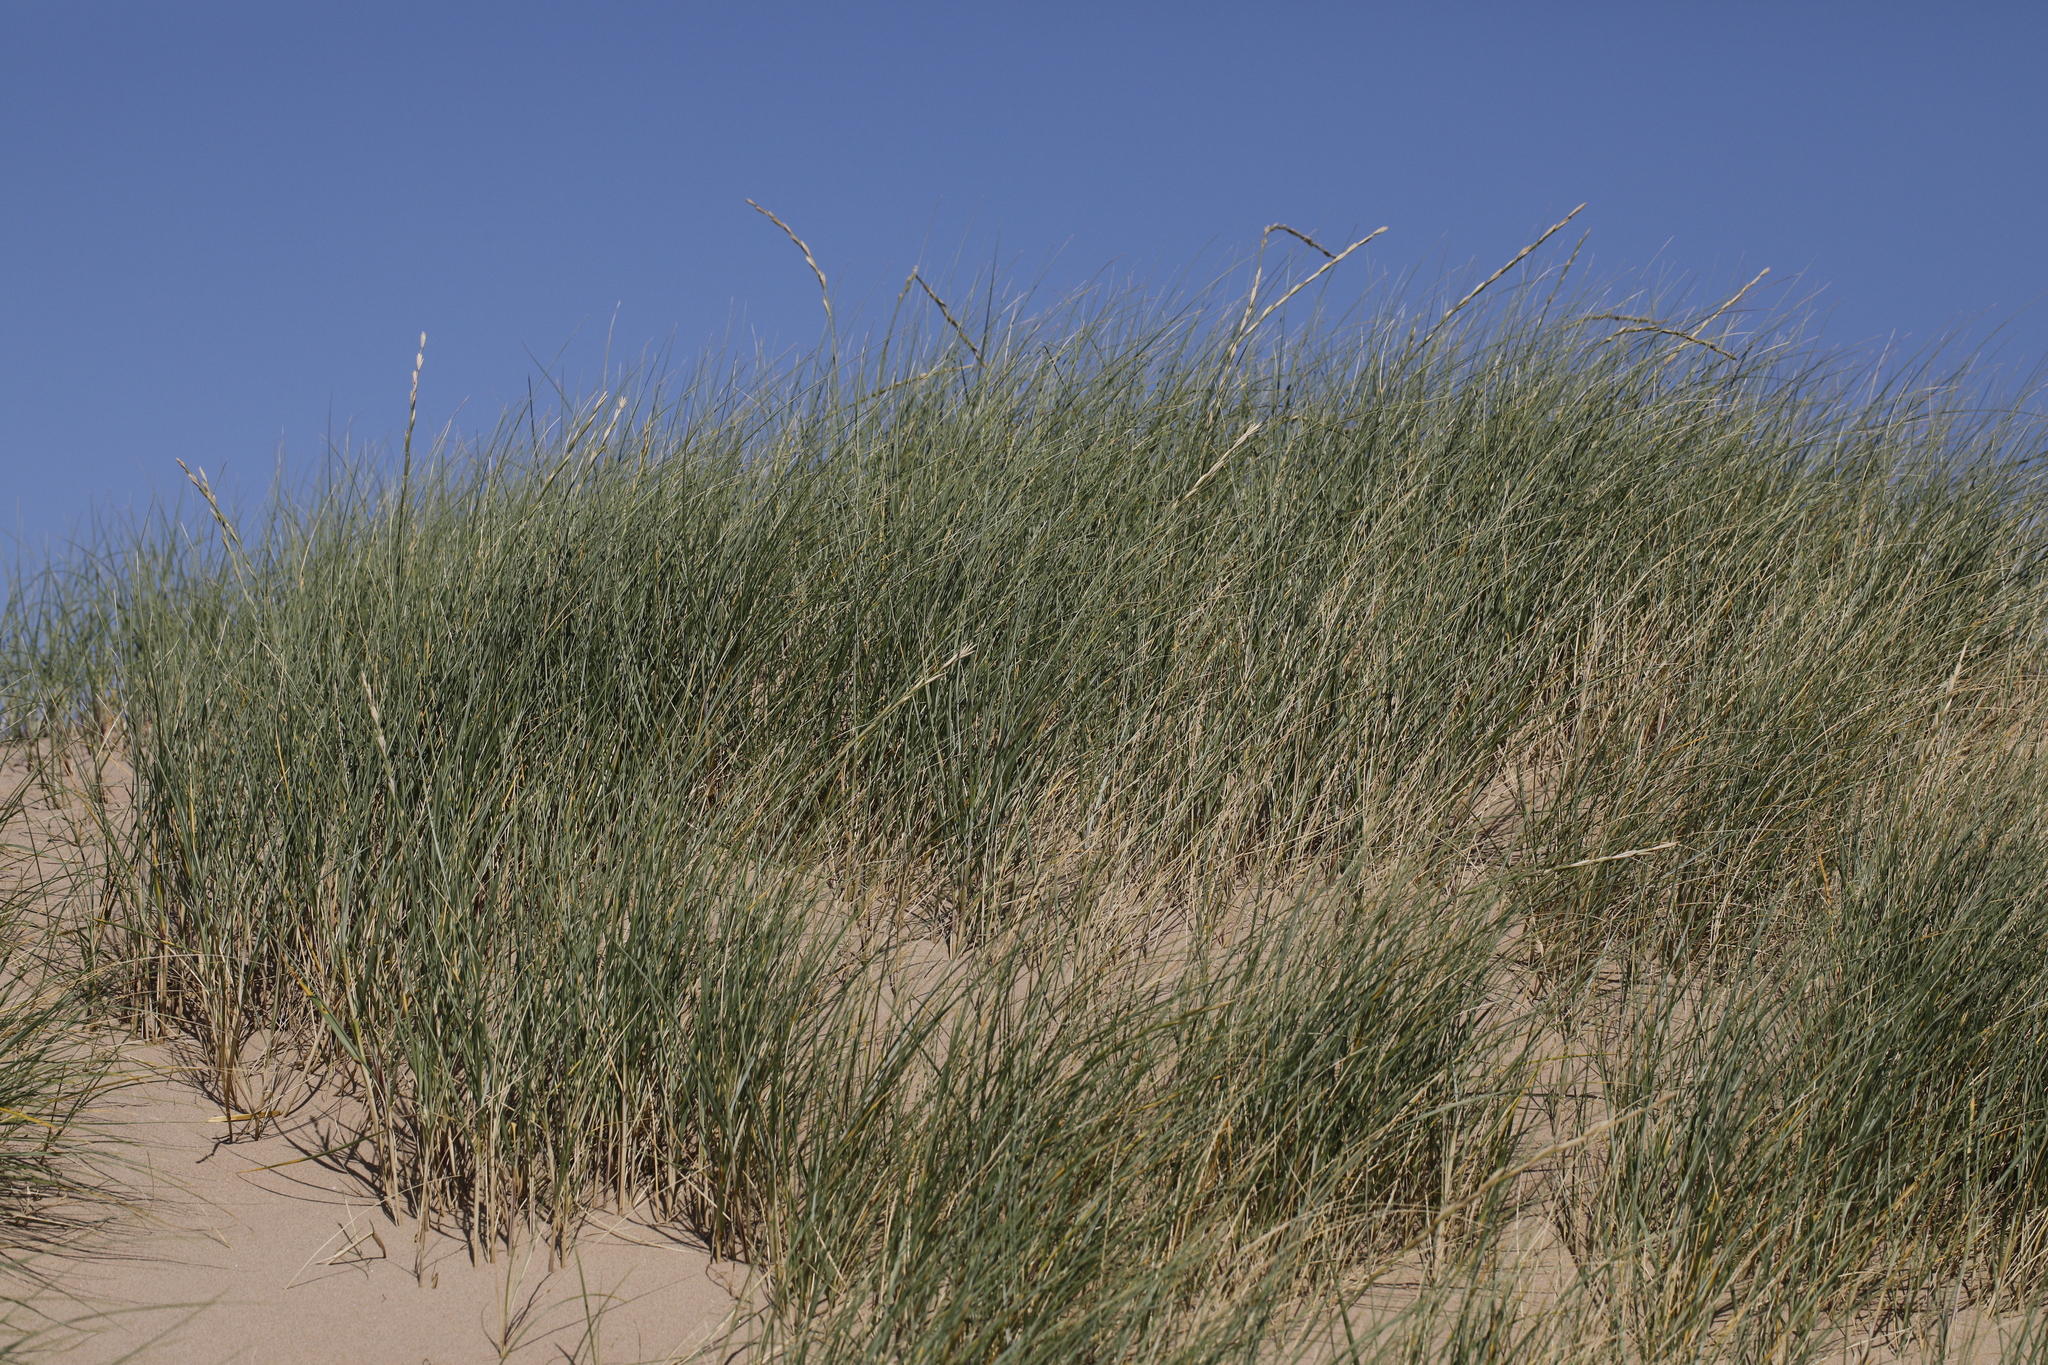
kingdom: Plantae
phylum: Tracheophyta
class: Liliopsida
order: Poales
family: Poaceae
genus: Thinopyrum
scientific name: Thinopyrum junceum
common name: Russian wheatgrass
